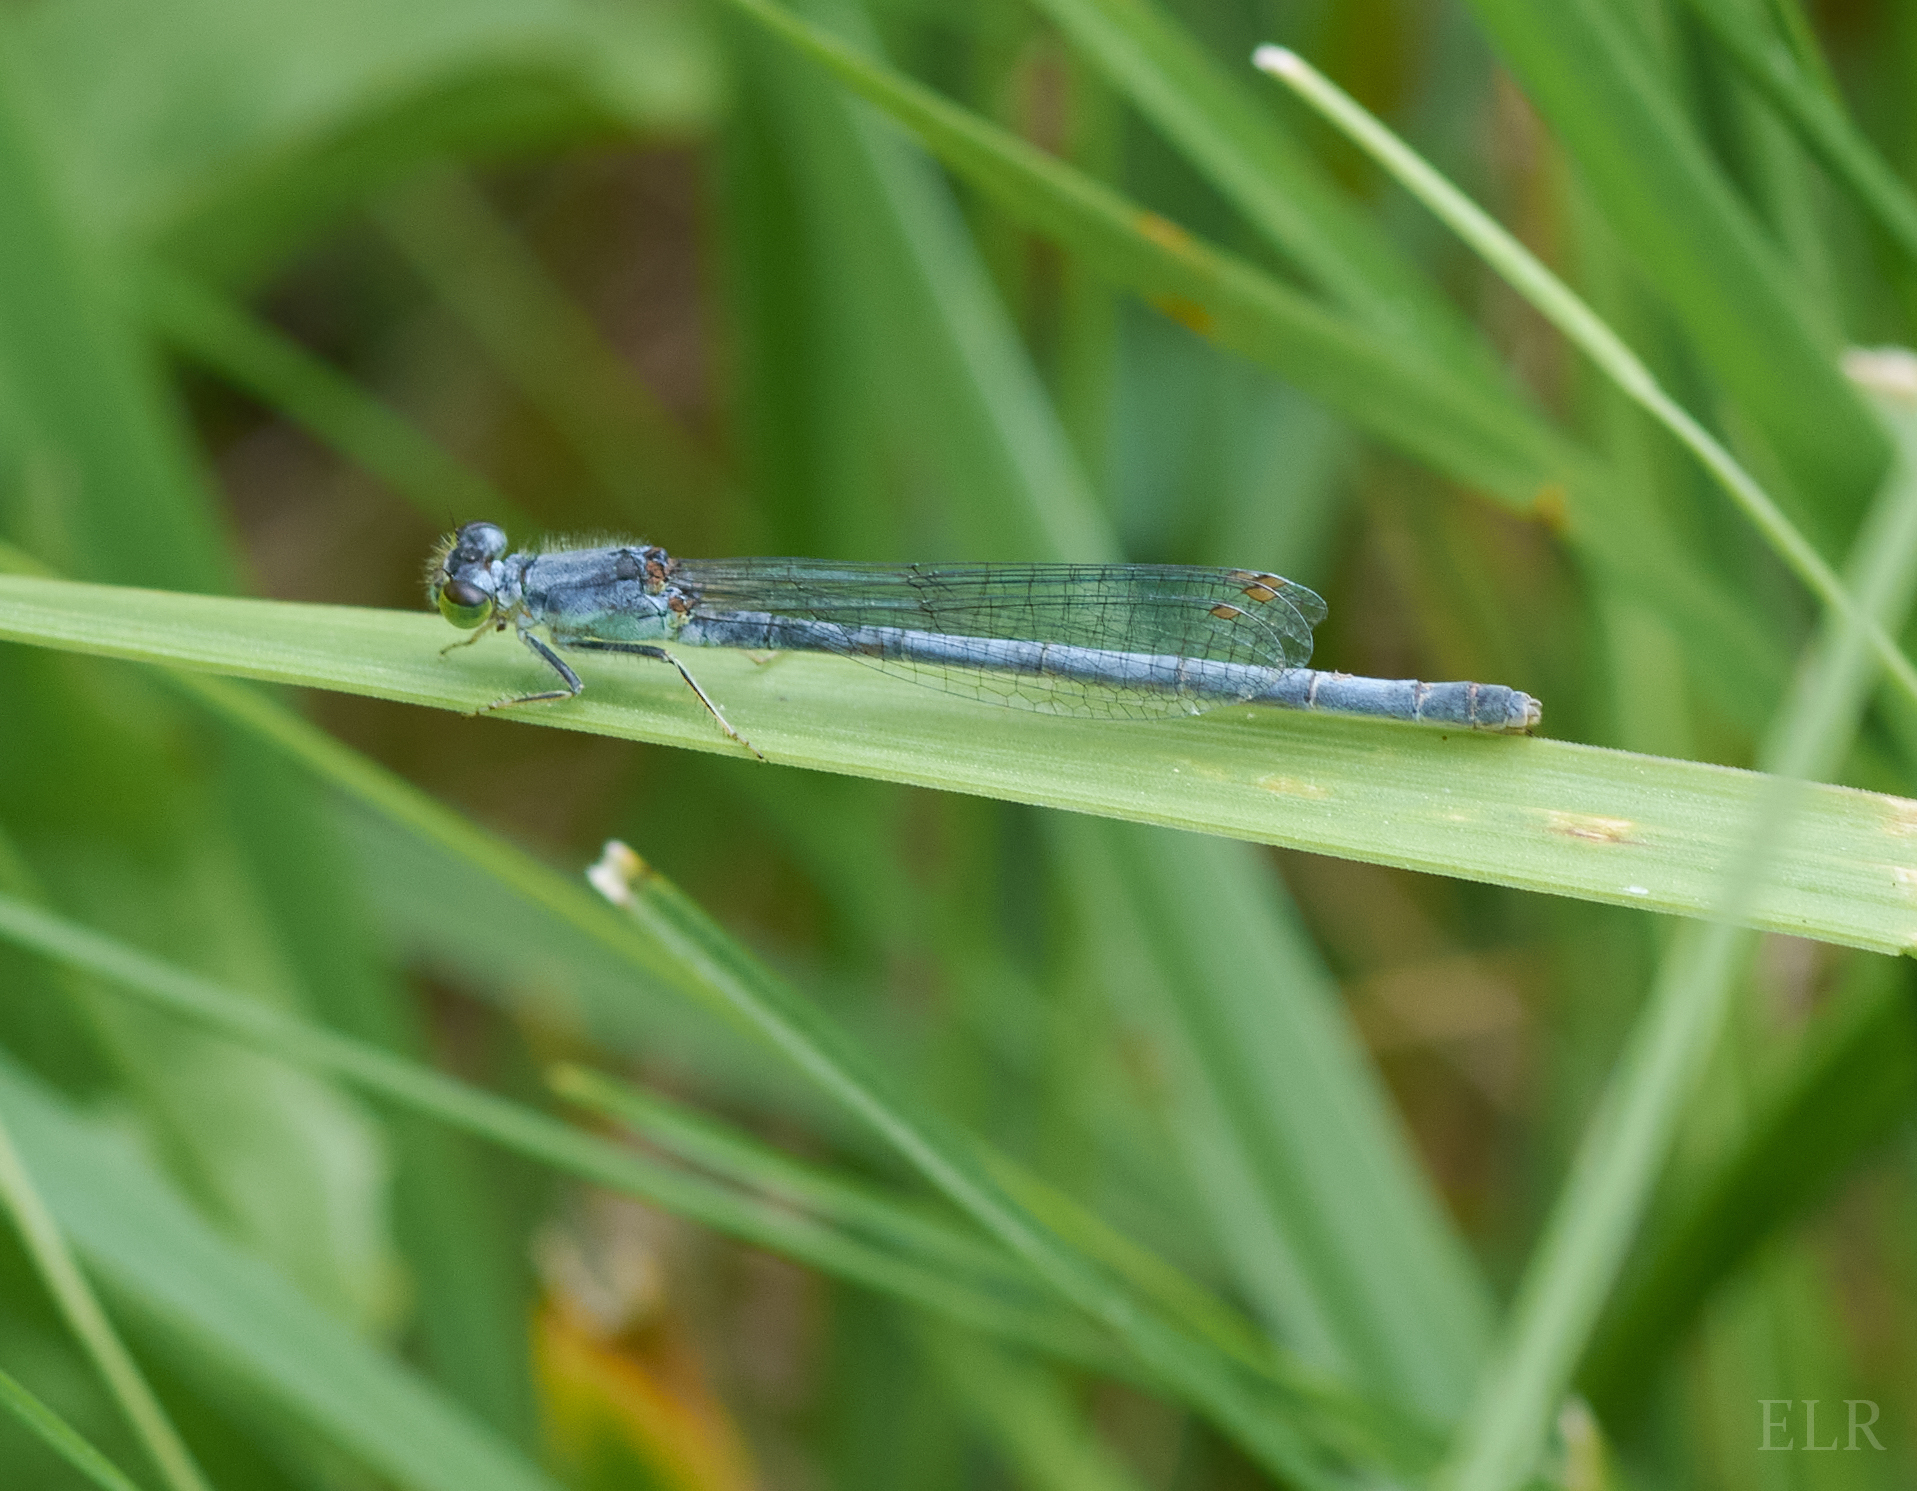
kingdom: Animalia
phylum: Arthropoda
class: Insecta
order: Odonata
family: Coenagrionidae
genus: Ischnura
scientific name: Ischnura posita
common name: Fragile forktail
